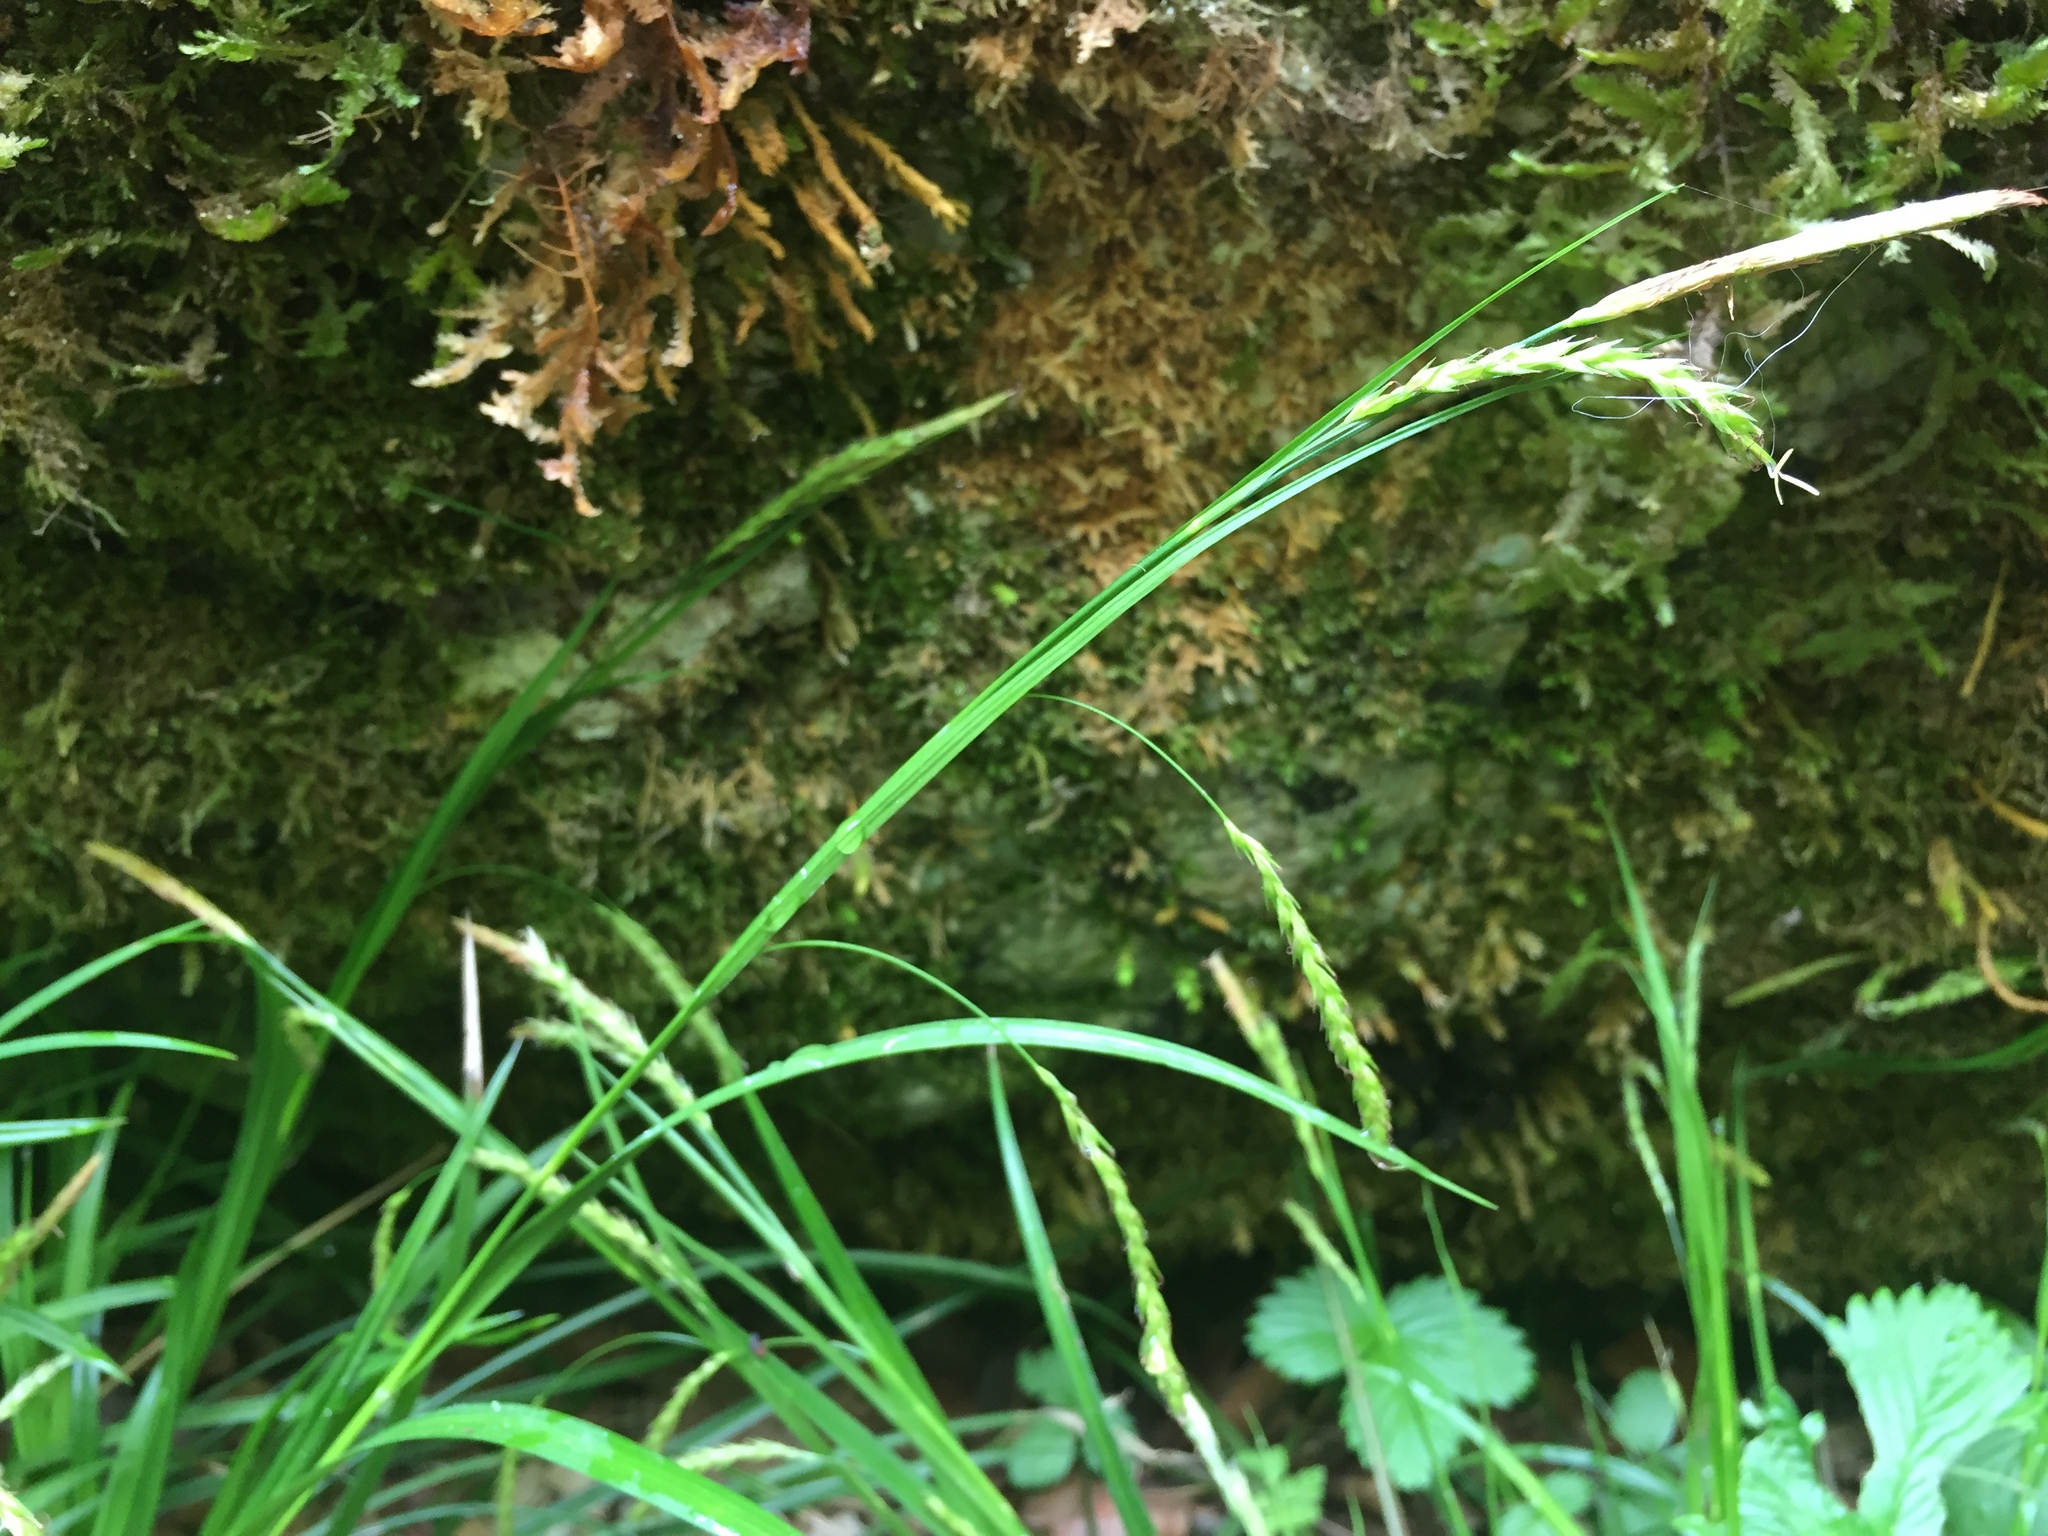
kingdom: Plantae
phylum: Tracheophyta
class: Liliopsida
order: Poales
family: Cyperaceae
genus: Carex
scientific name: Carex sylvatica
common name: Wood-sedge
